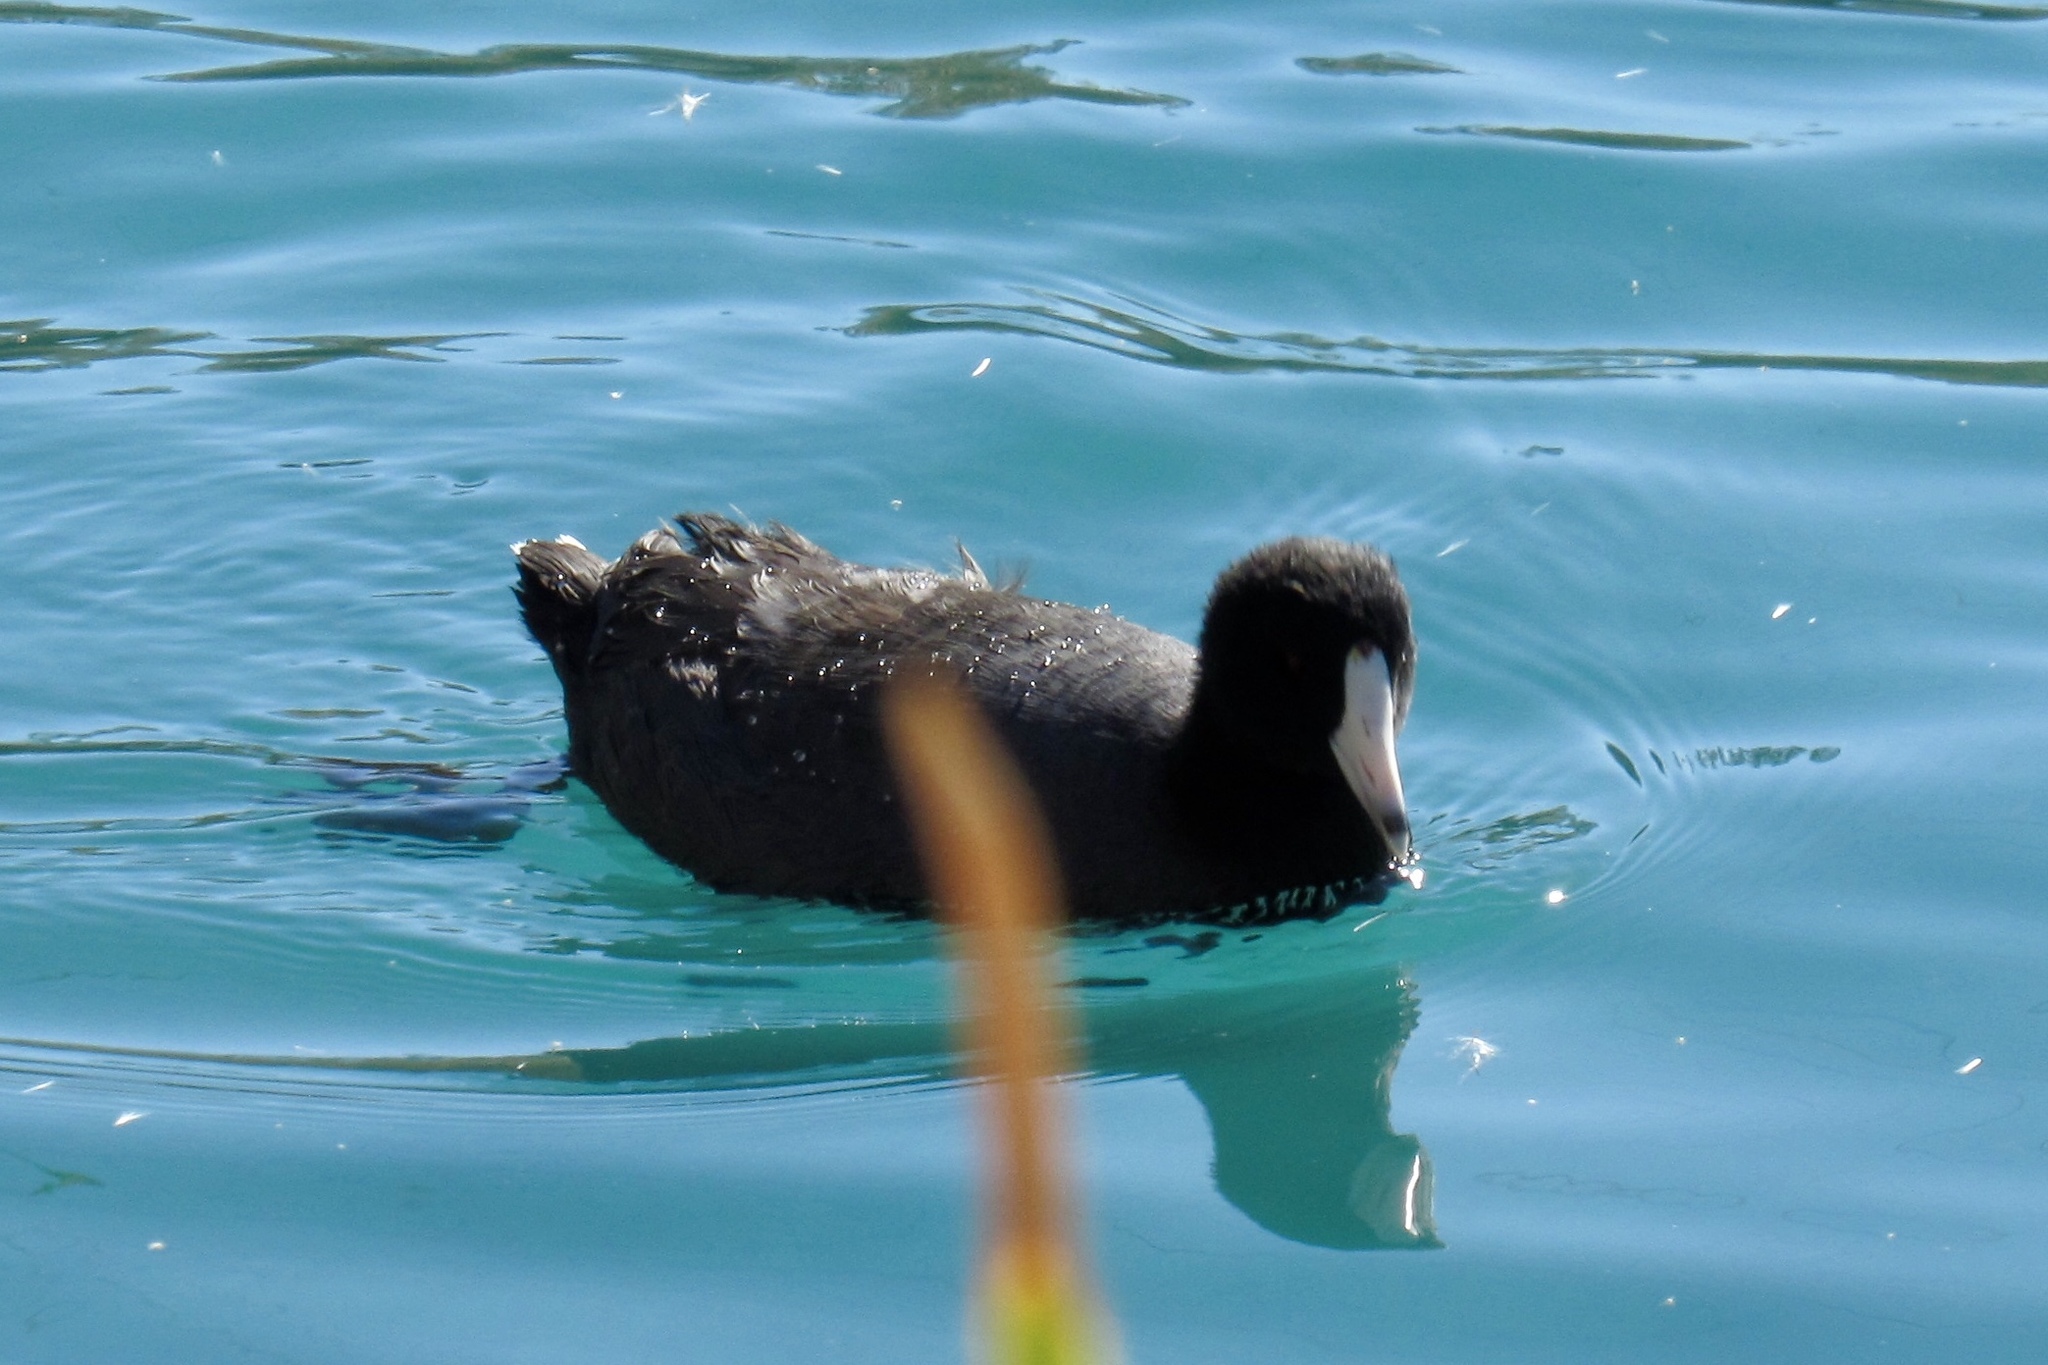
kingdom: Animalia
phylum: Chordata
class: Aves
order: Gruiformes
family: Rallidae
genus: Fulica
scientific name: Fulica americana
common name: American coot
